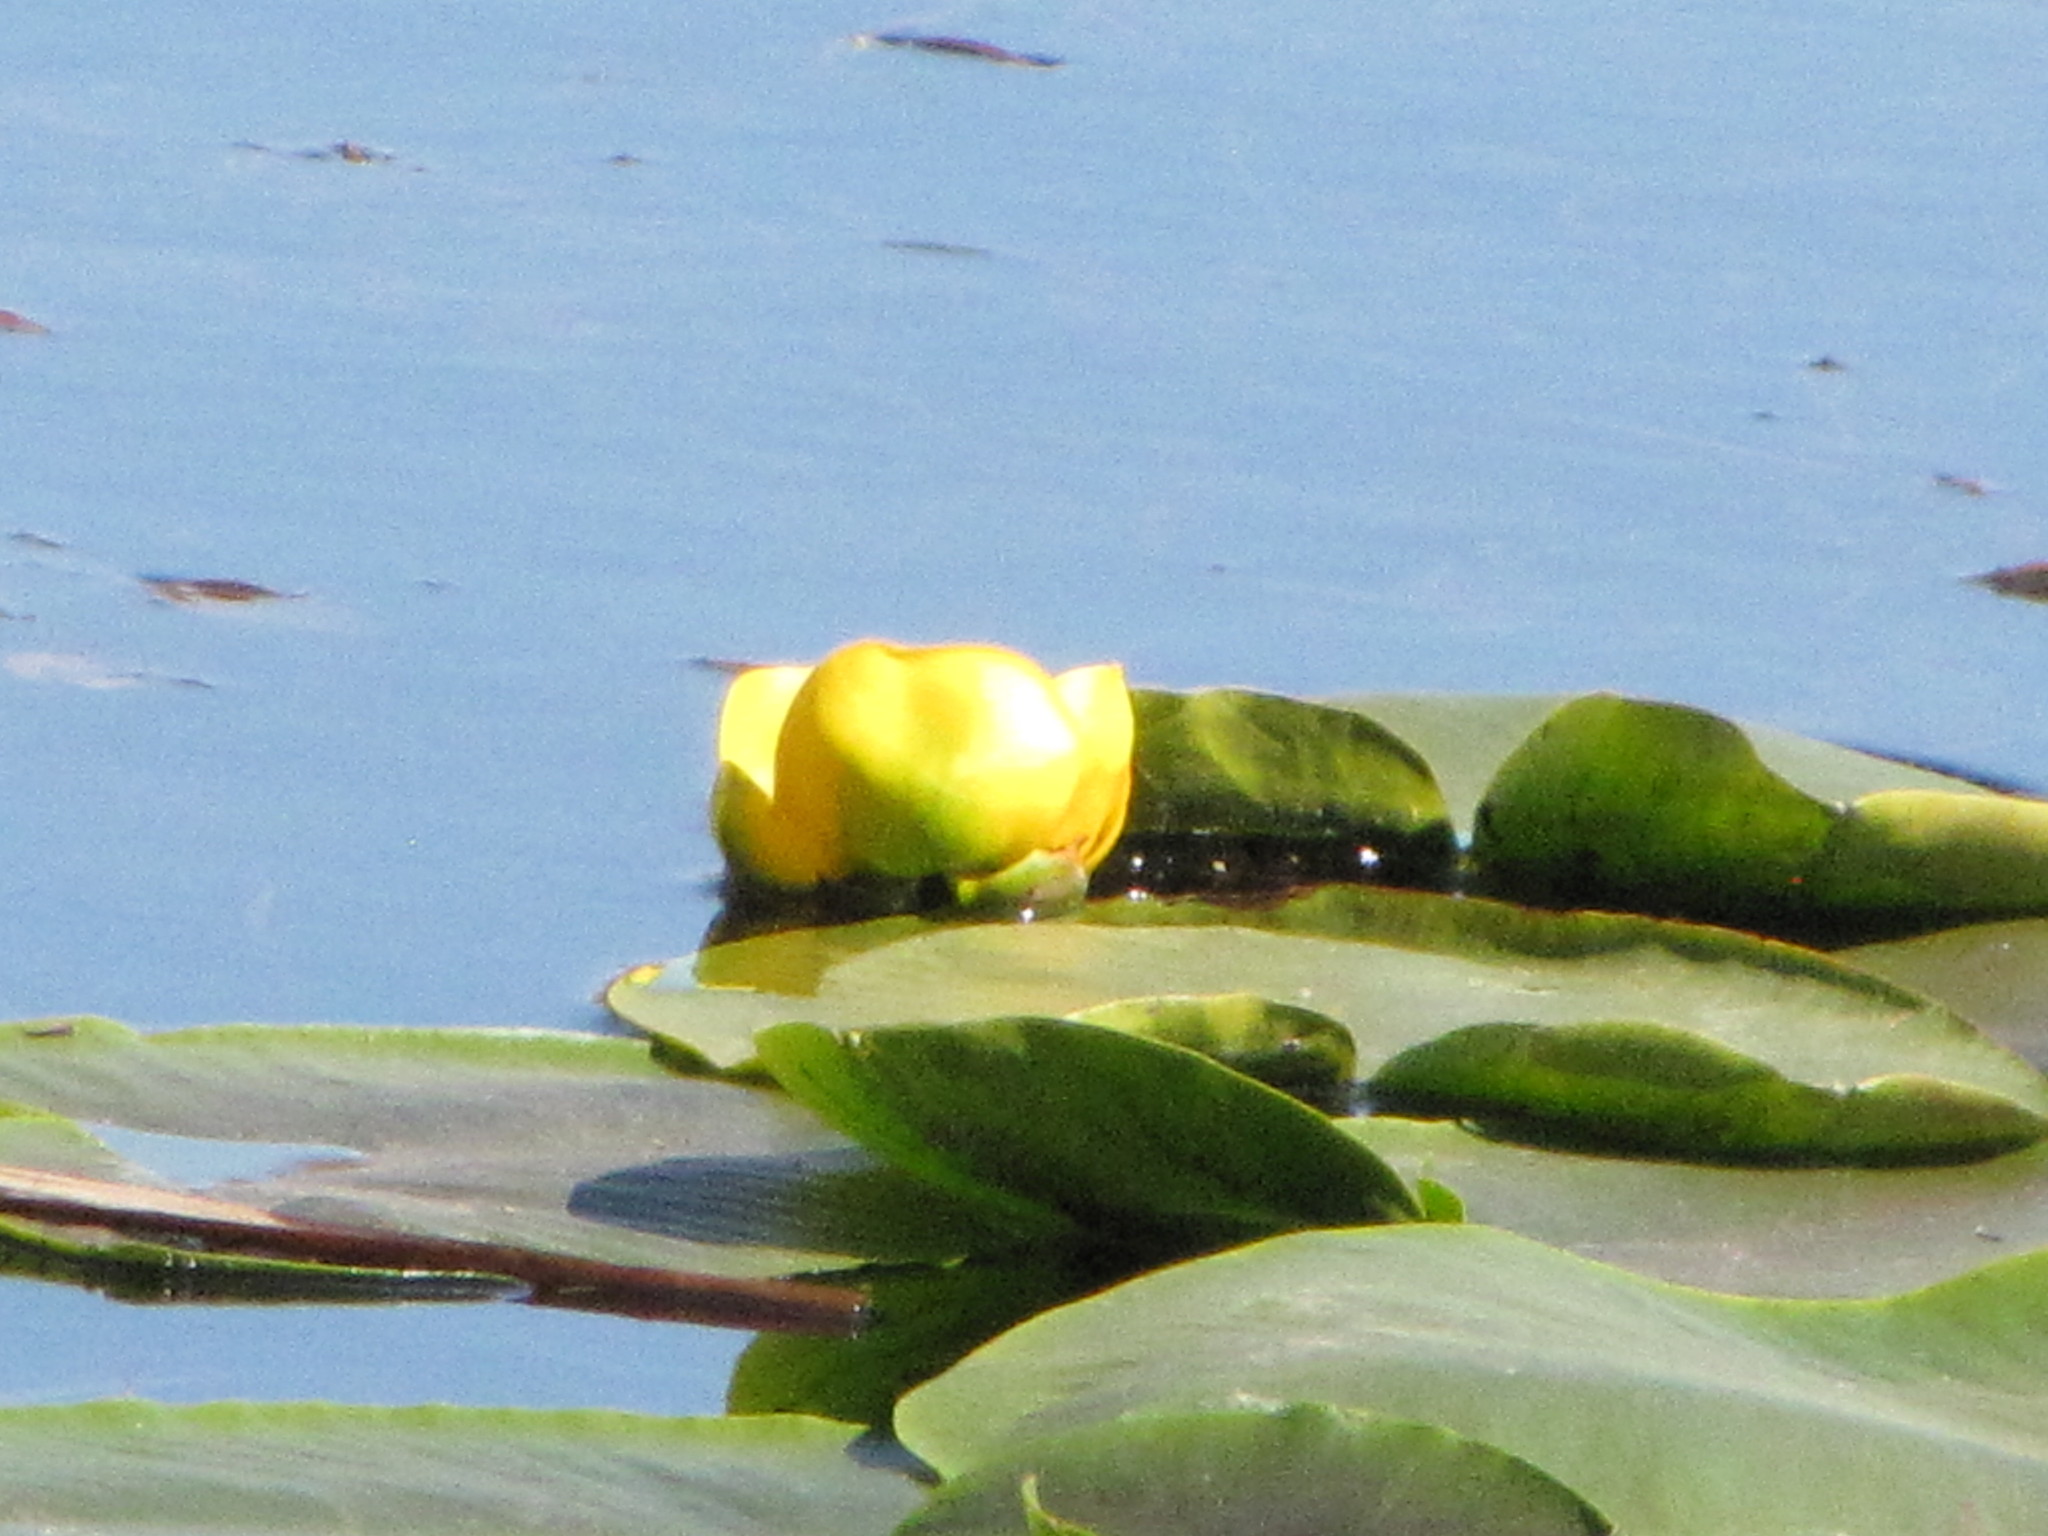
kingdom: Plantae
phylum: Tracheophyta
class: Magnoliopsida
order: Nymphaeales
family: Nymphaeaceae
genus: Nuphar
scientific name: Nuphar polysepala
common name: Rocky mountain cow-lily
